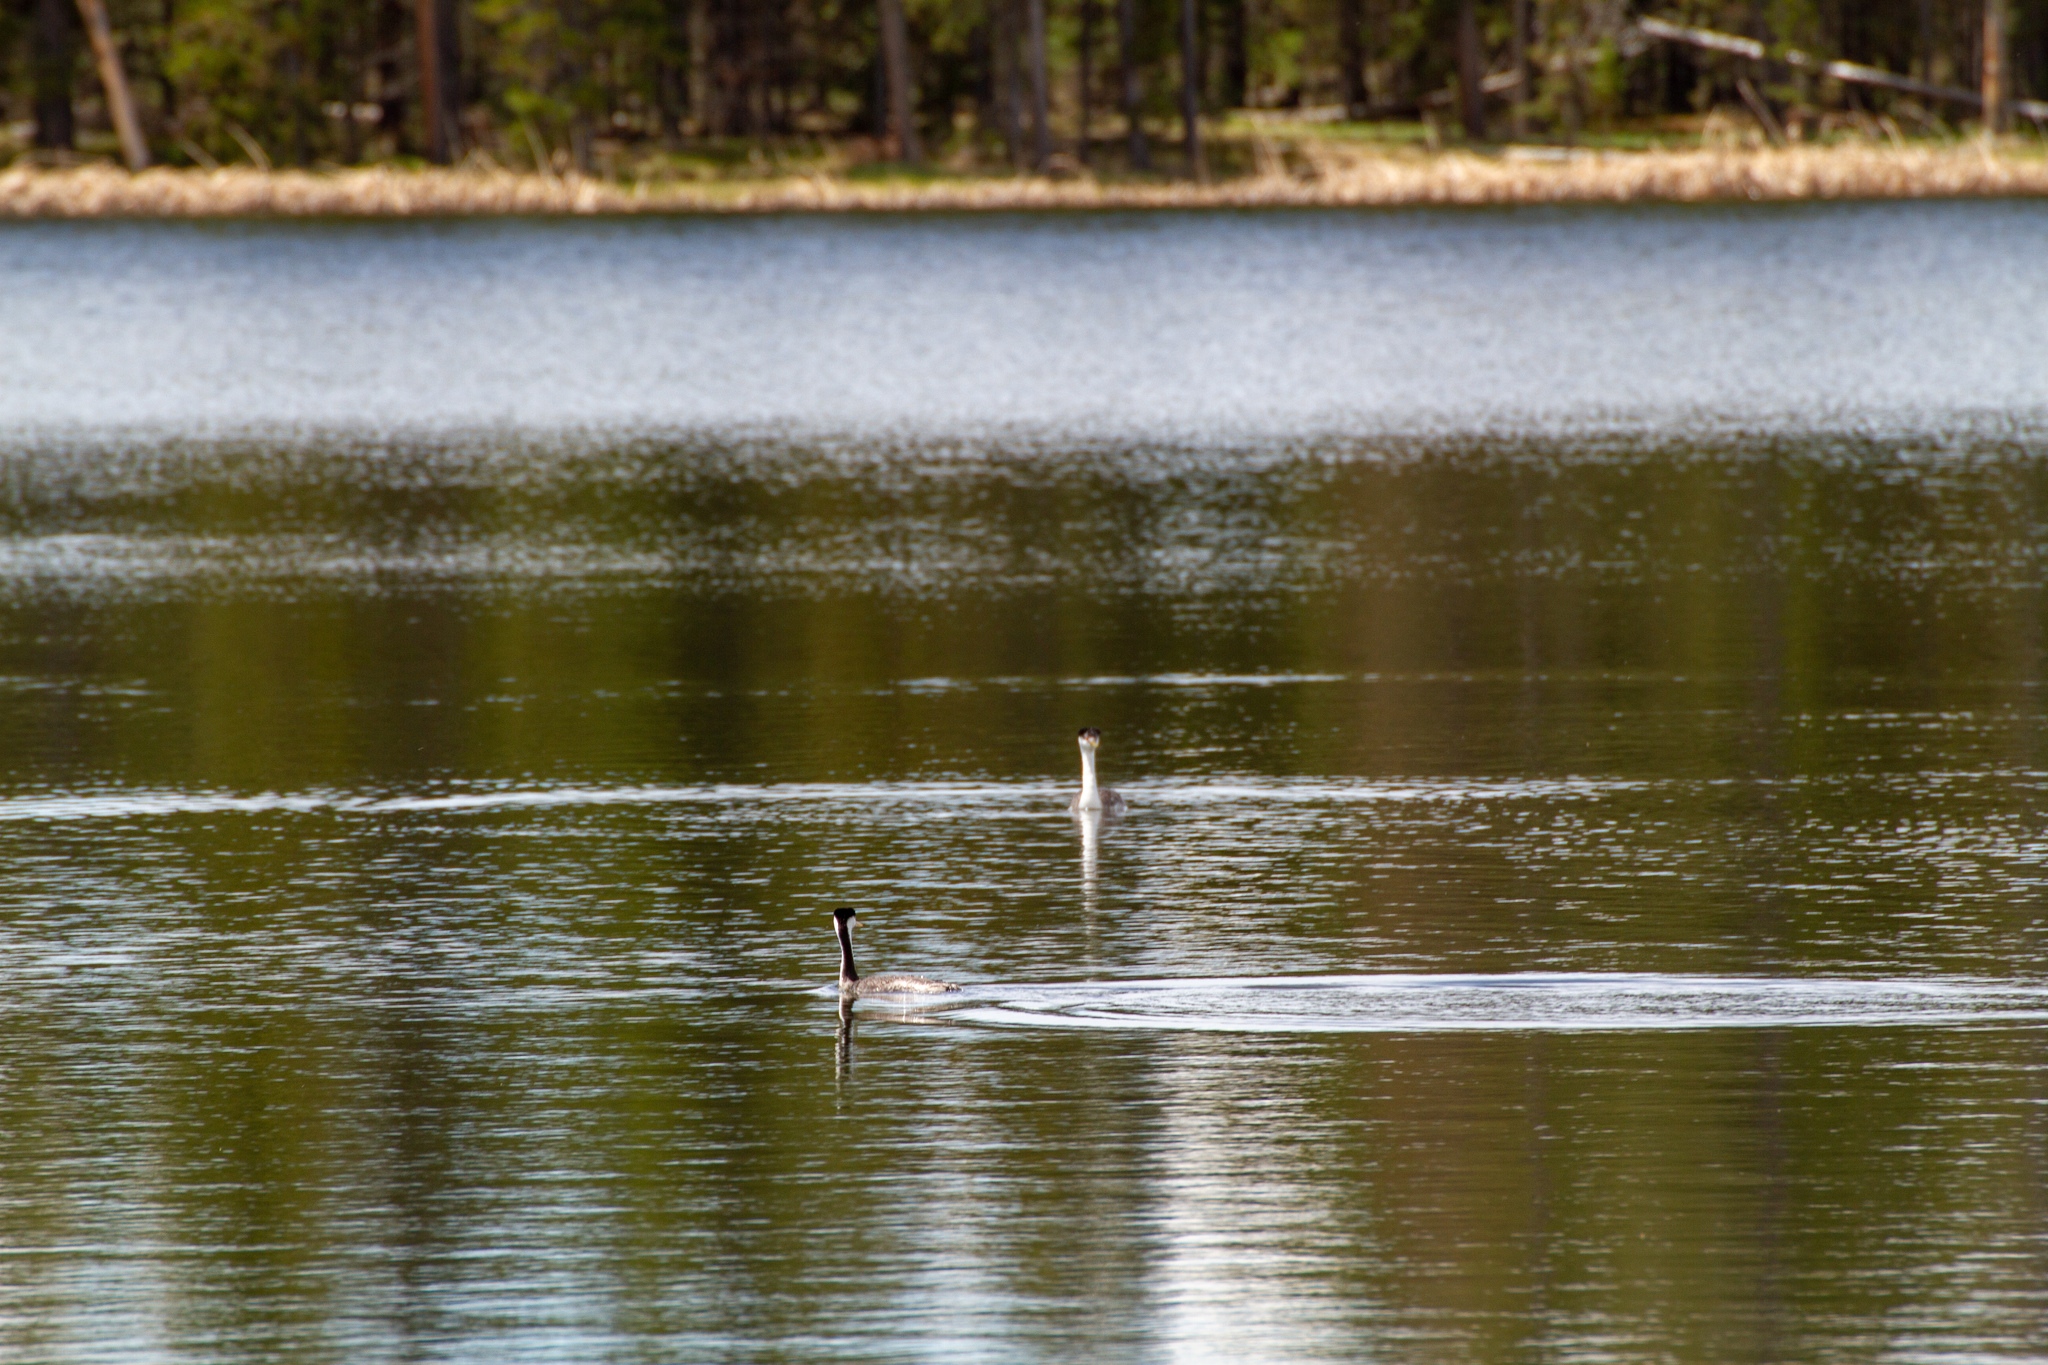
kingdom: Animalia
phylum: Chordata
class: Aves
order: Podicipediformes
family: Podicipedidae
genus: Aechmophorus
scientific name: Aechmophorus occidentalis
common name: Western grebe
